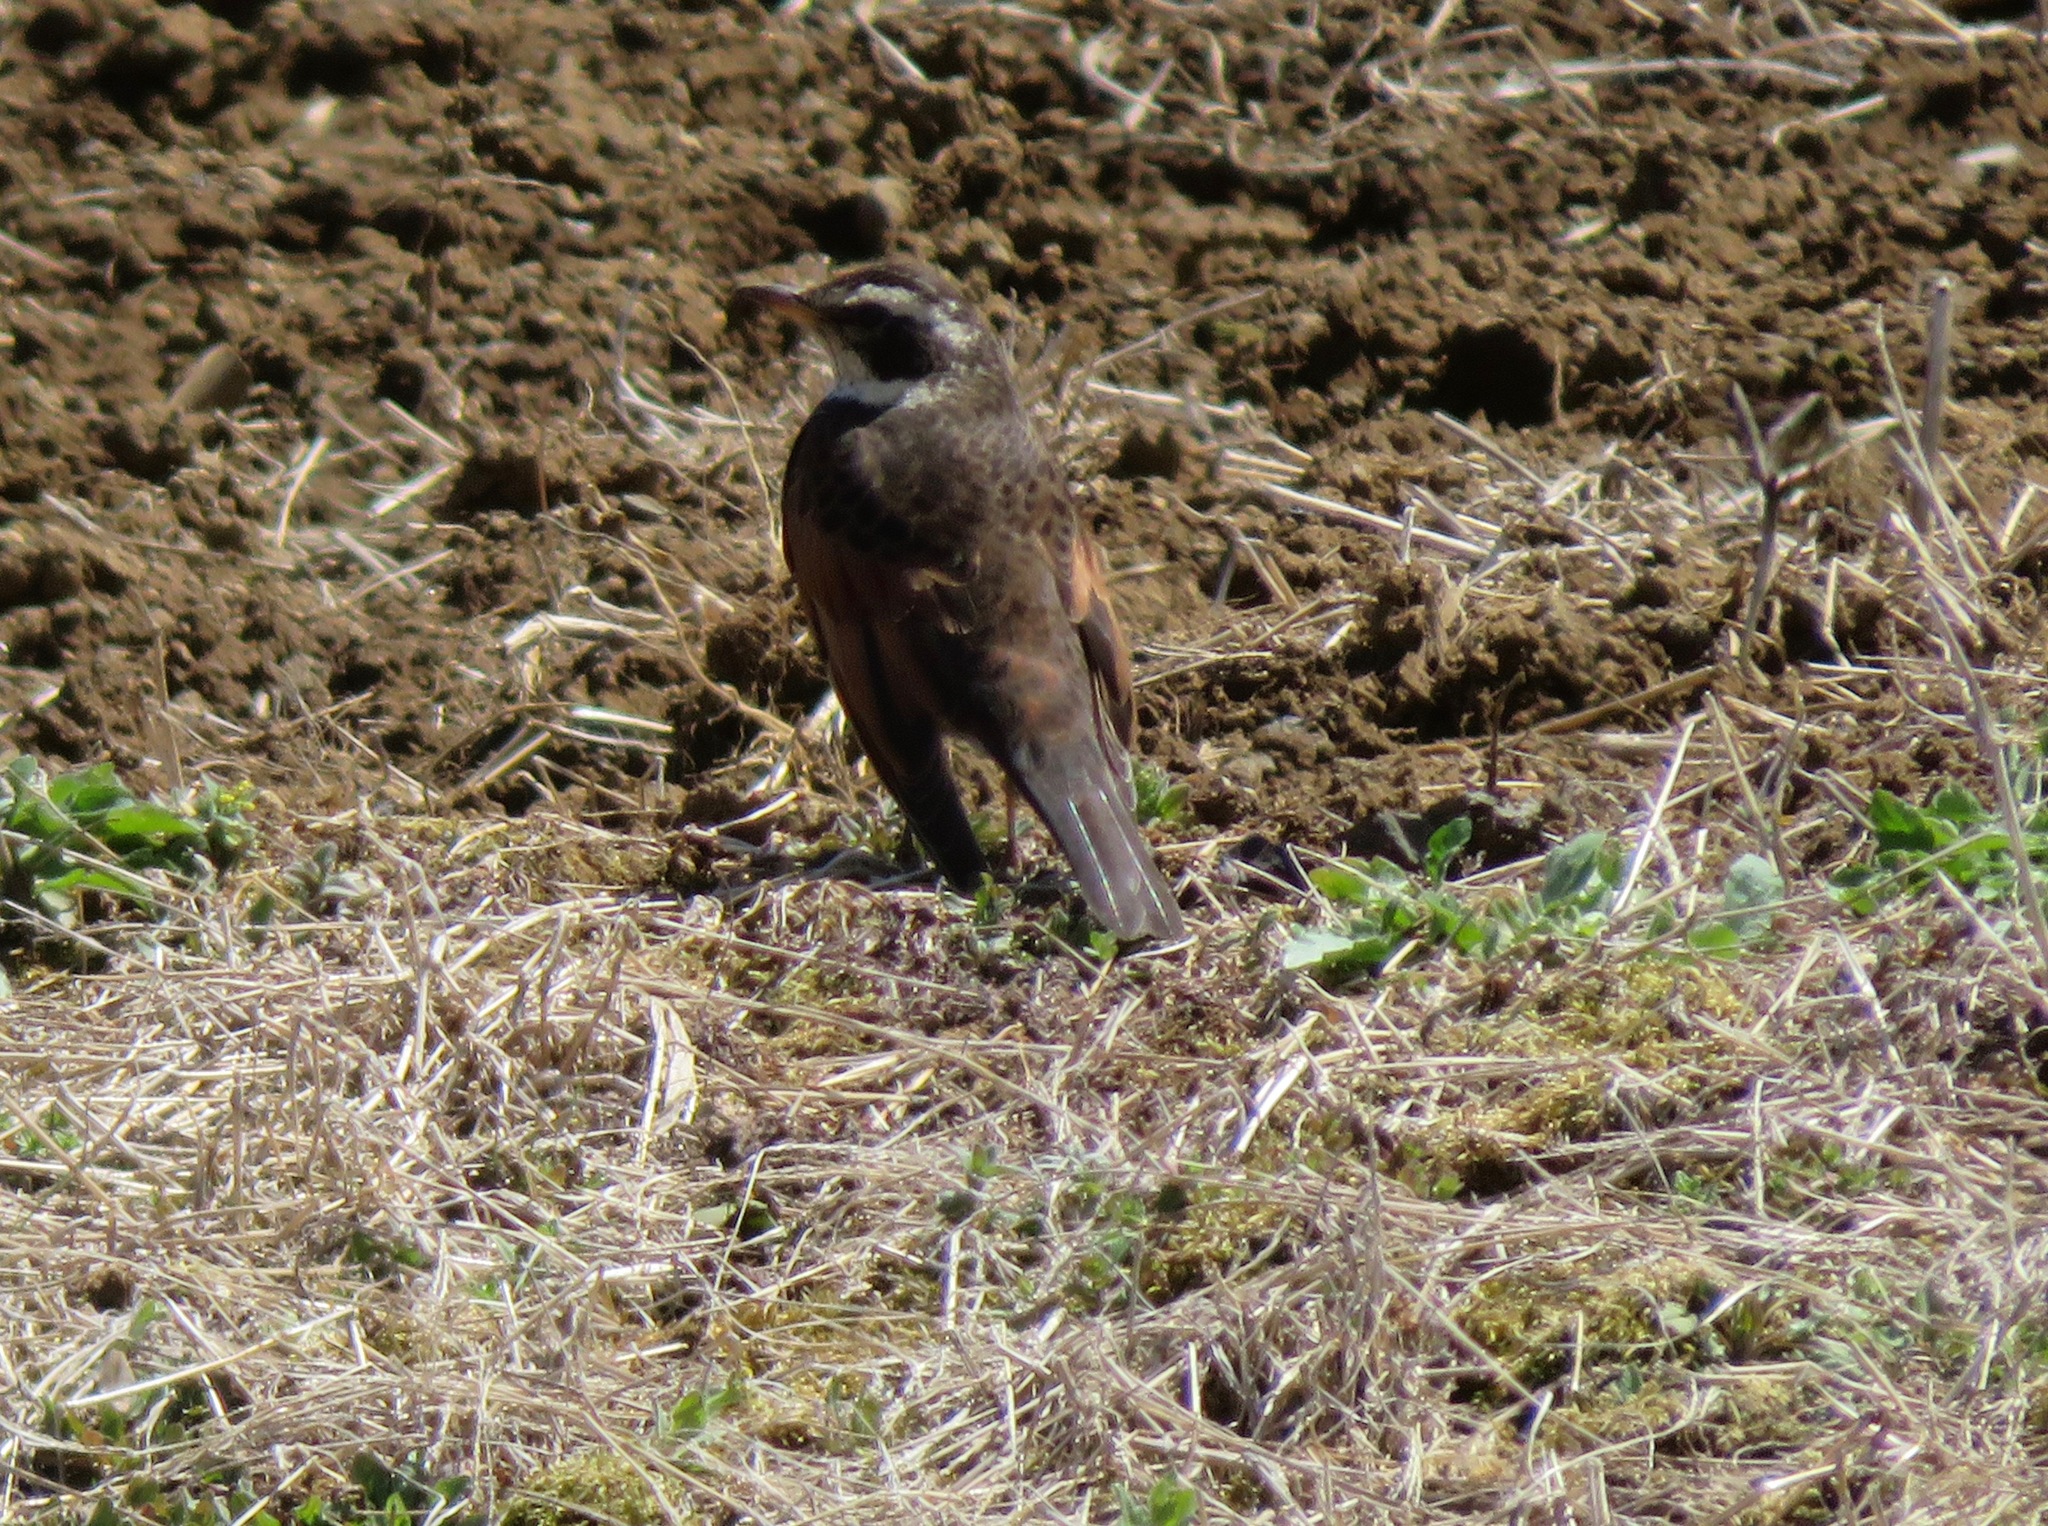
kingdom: Animalia
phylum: Chordata
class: Aves
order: Passeriformes
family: Turdidae
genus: Turdus
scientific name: Turdus eunomus
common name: Dusky thrush
